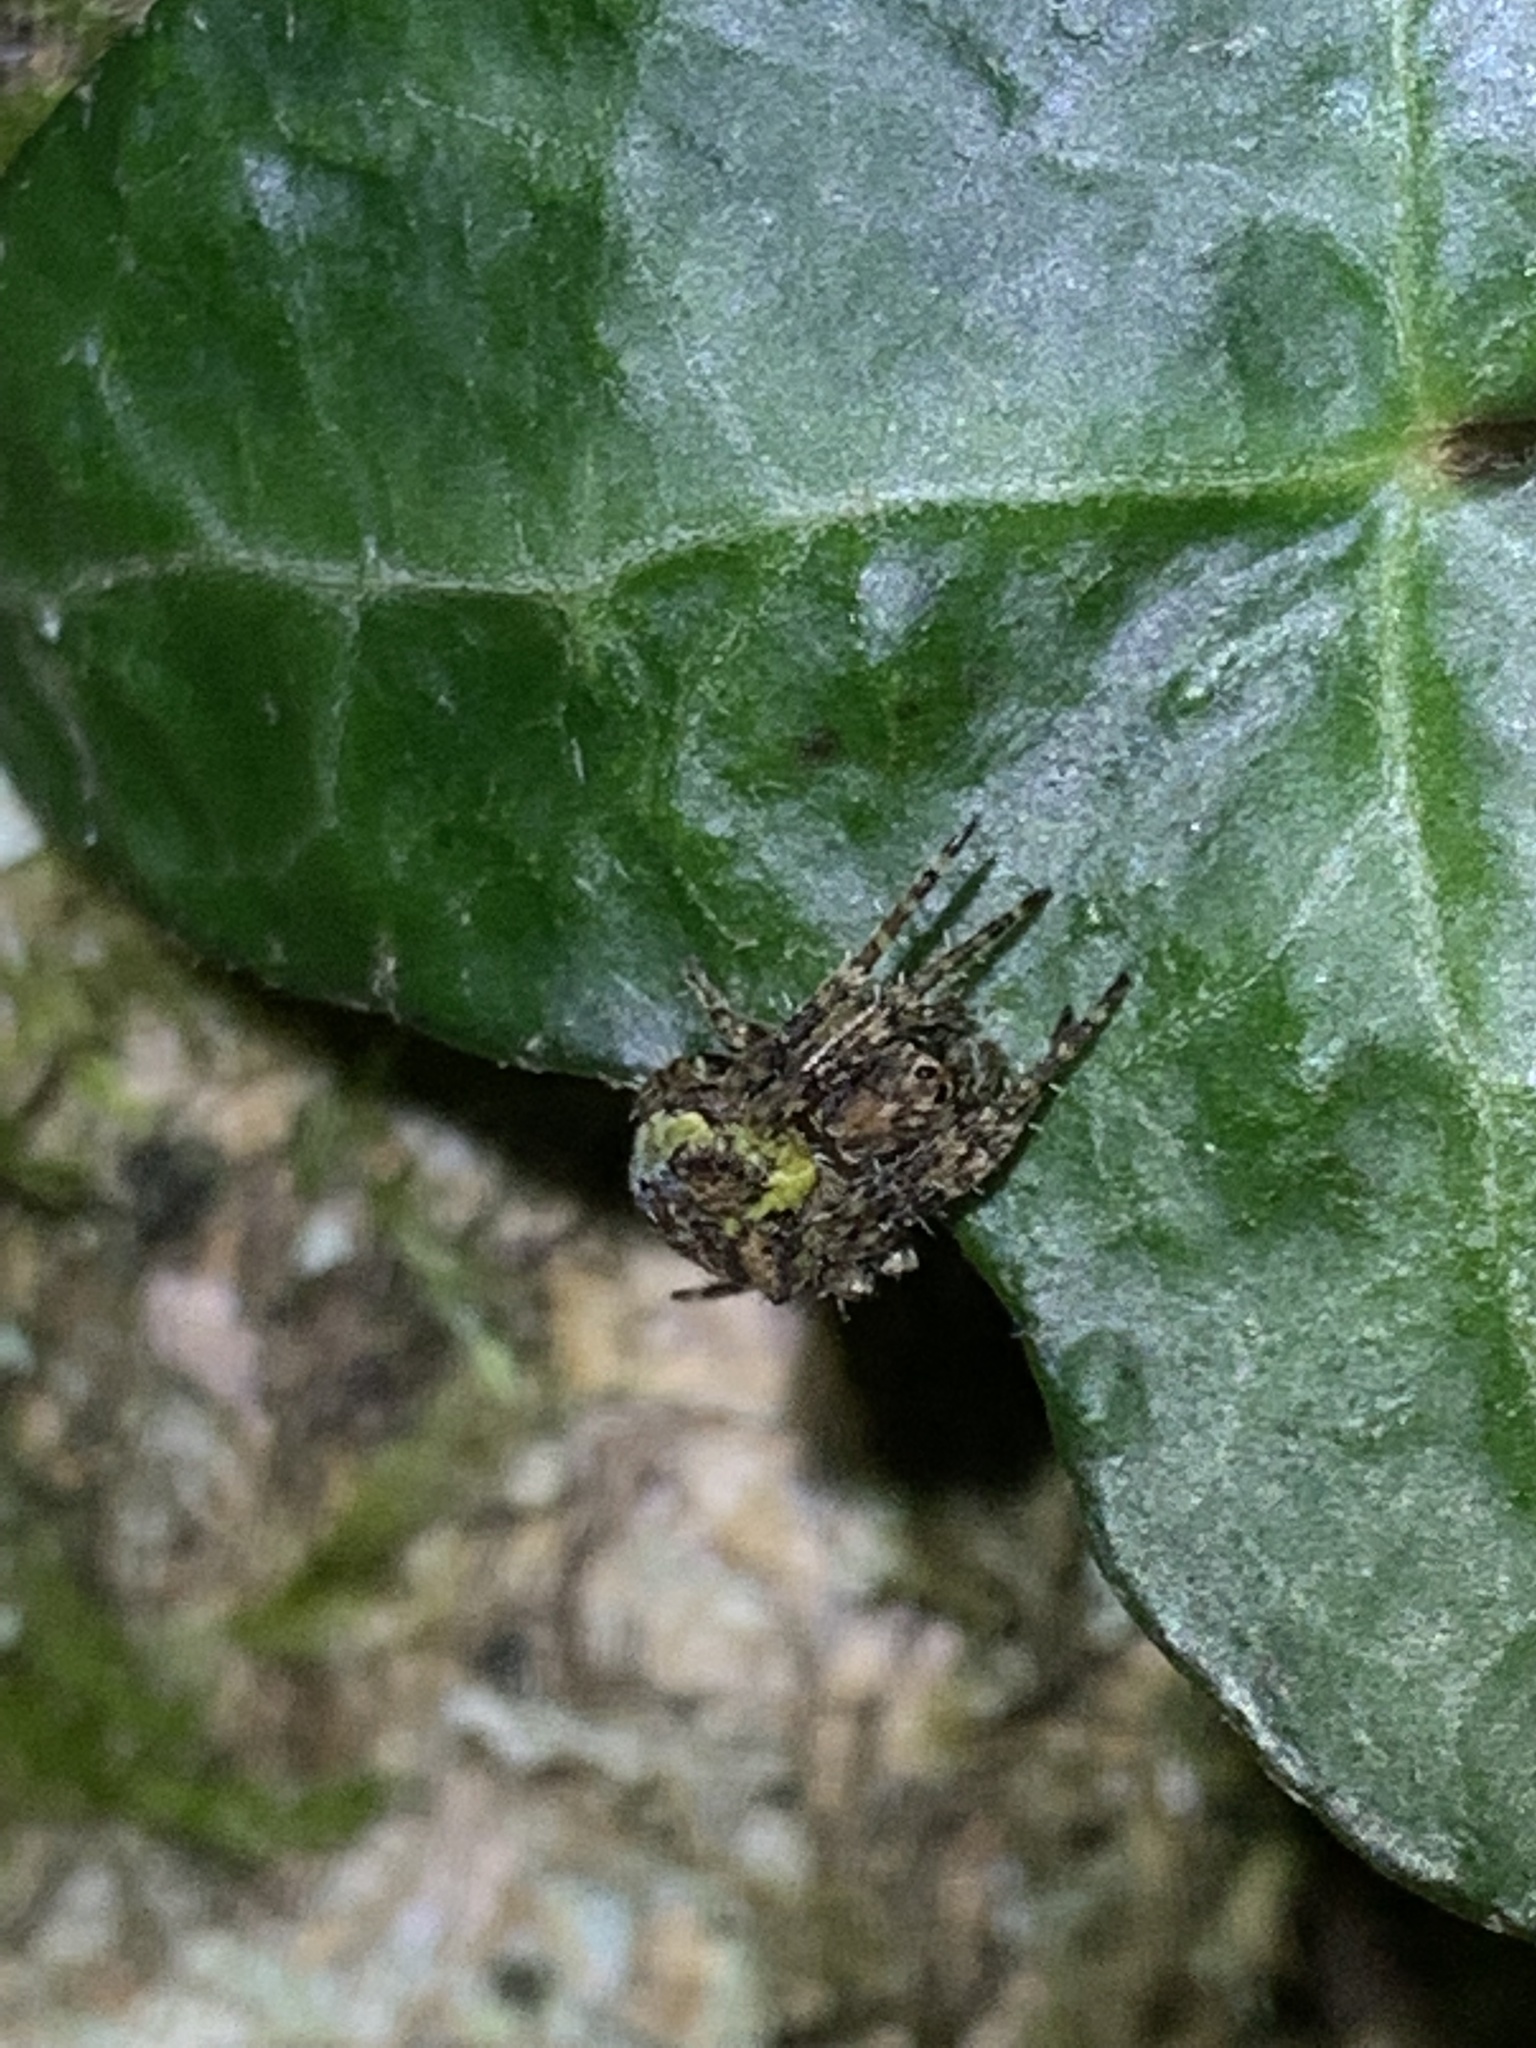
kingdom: Animalia
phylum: Arthropoda
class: Arachnida
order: Araneae
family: Araneidae
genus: Gibbaranea
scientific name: Gibbaranea gibbosa
